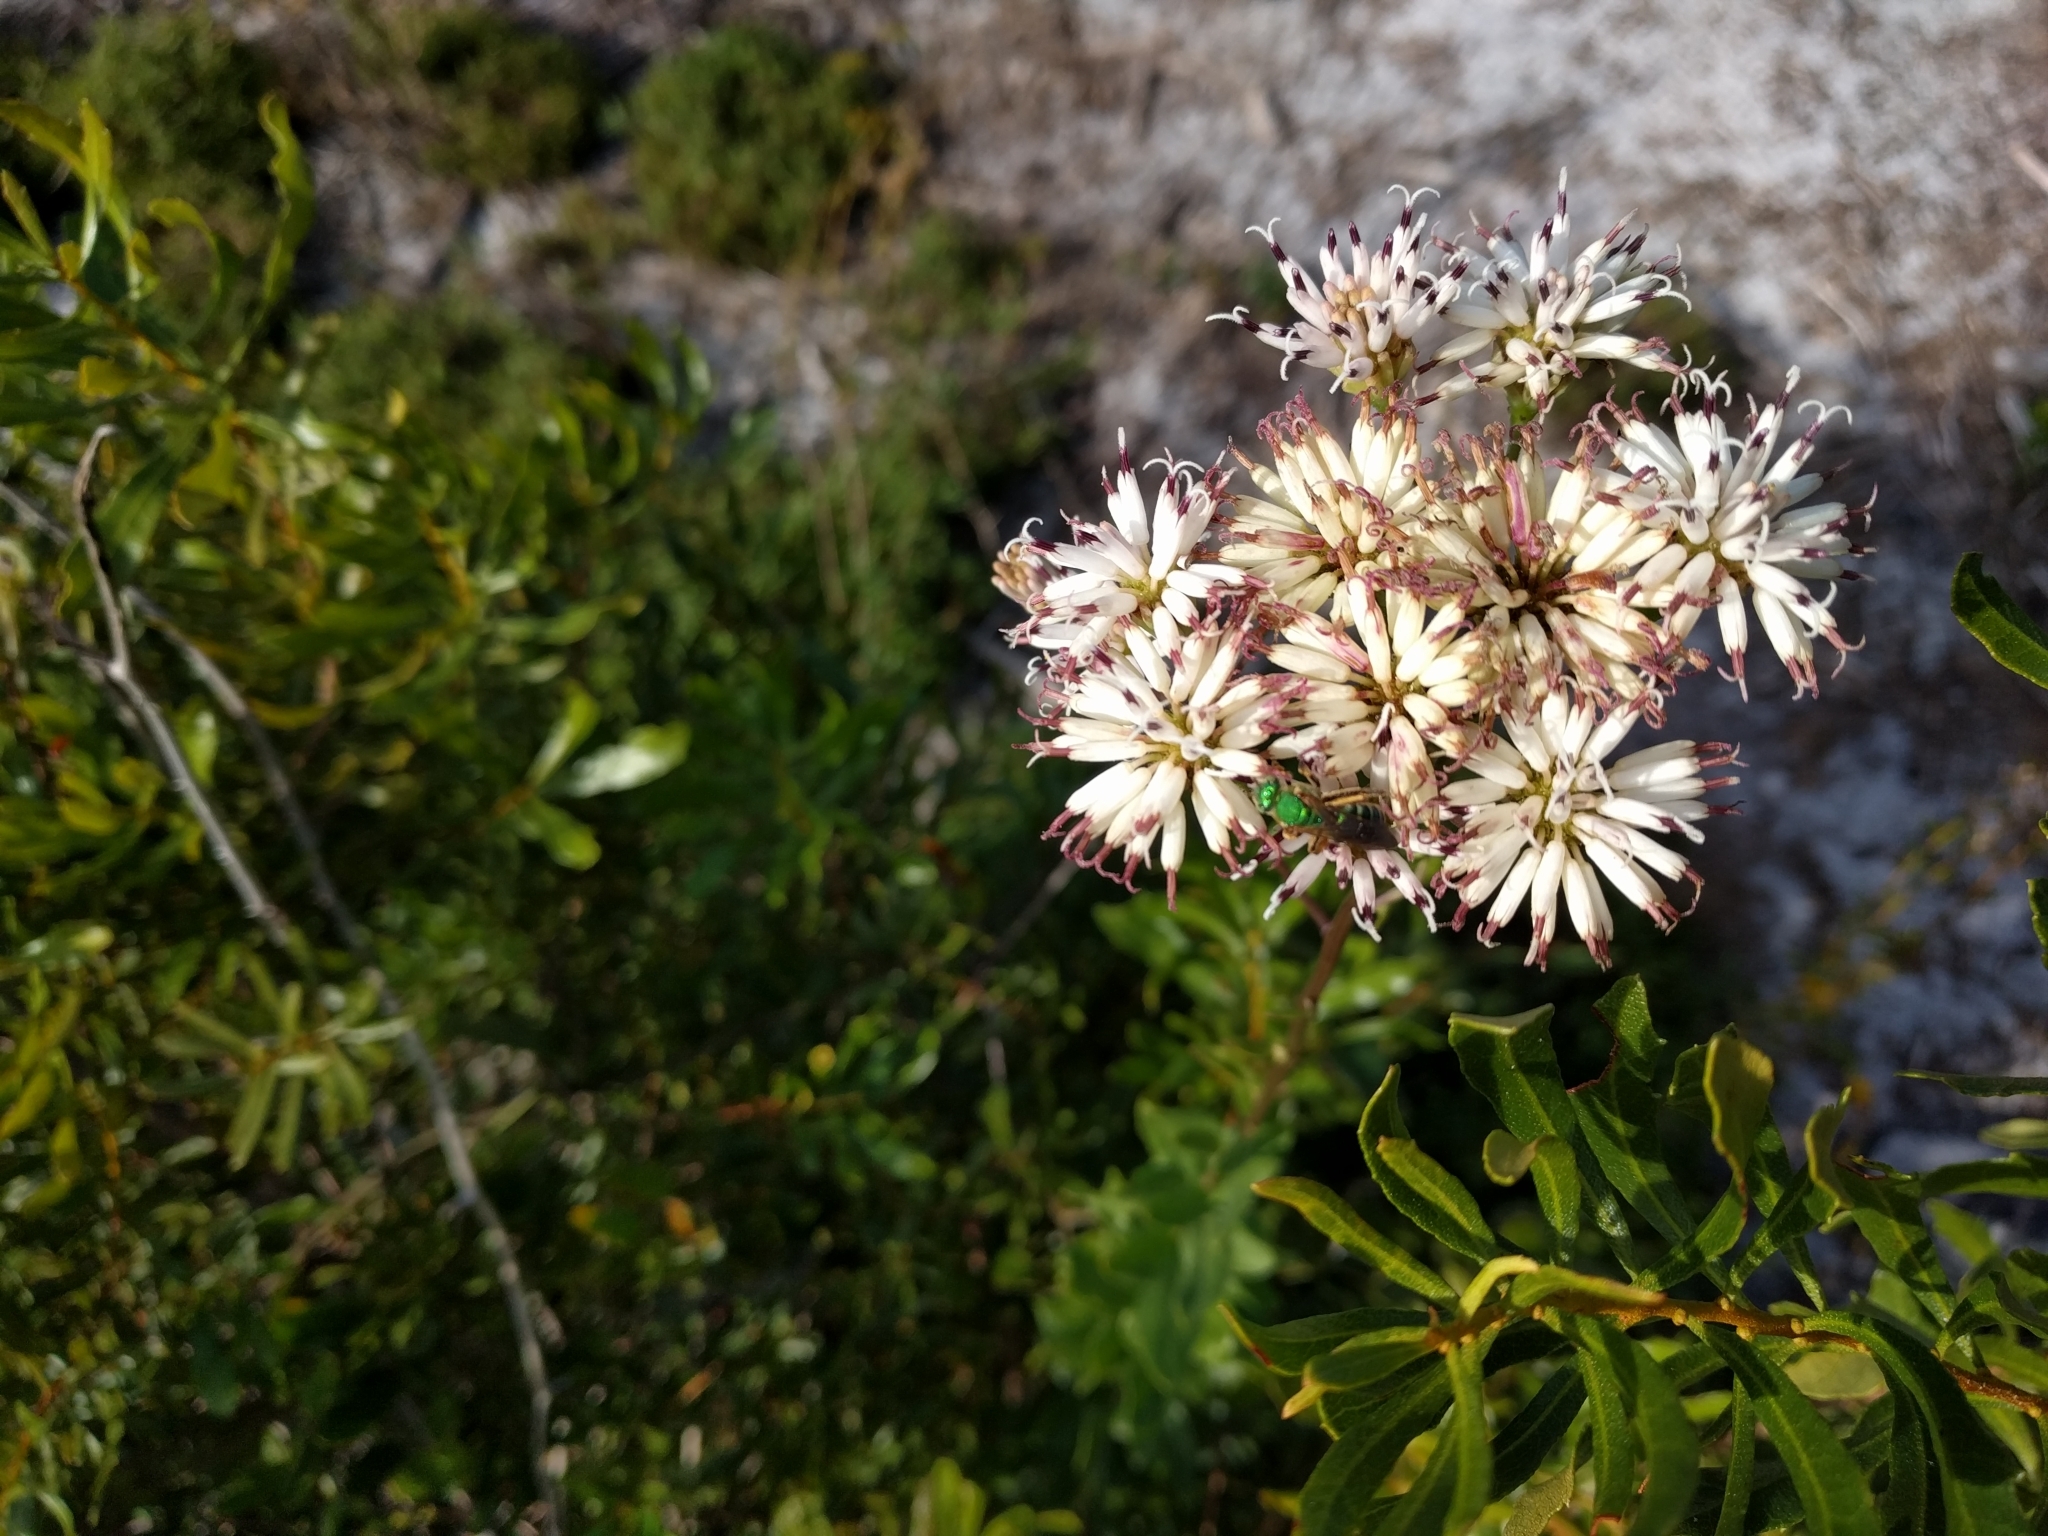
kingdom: Animalia
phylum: Arthropoda
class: Insecta
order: Hymenoptera
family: Halictidae
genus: Agapostemon
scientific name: Agapostemon splendens
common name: Brown-winged striped sweat bee
